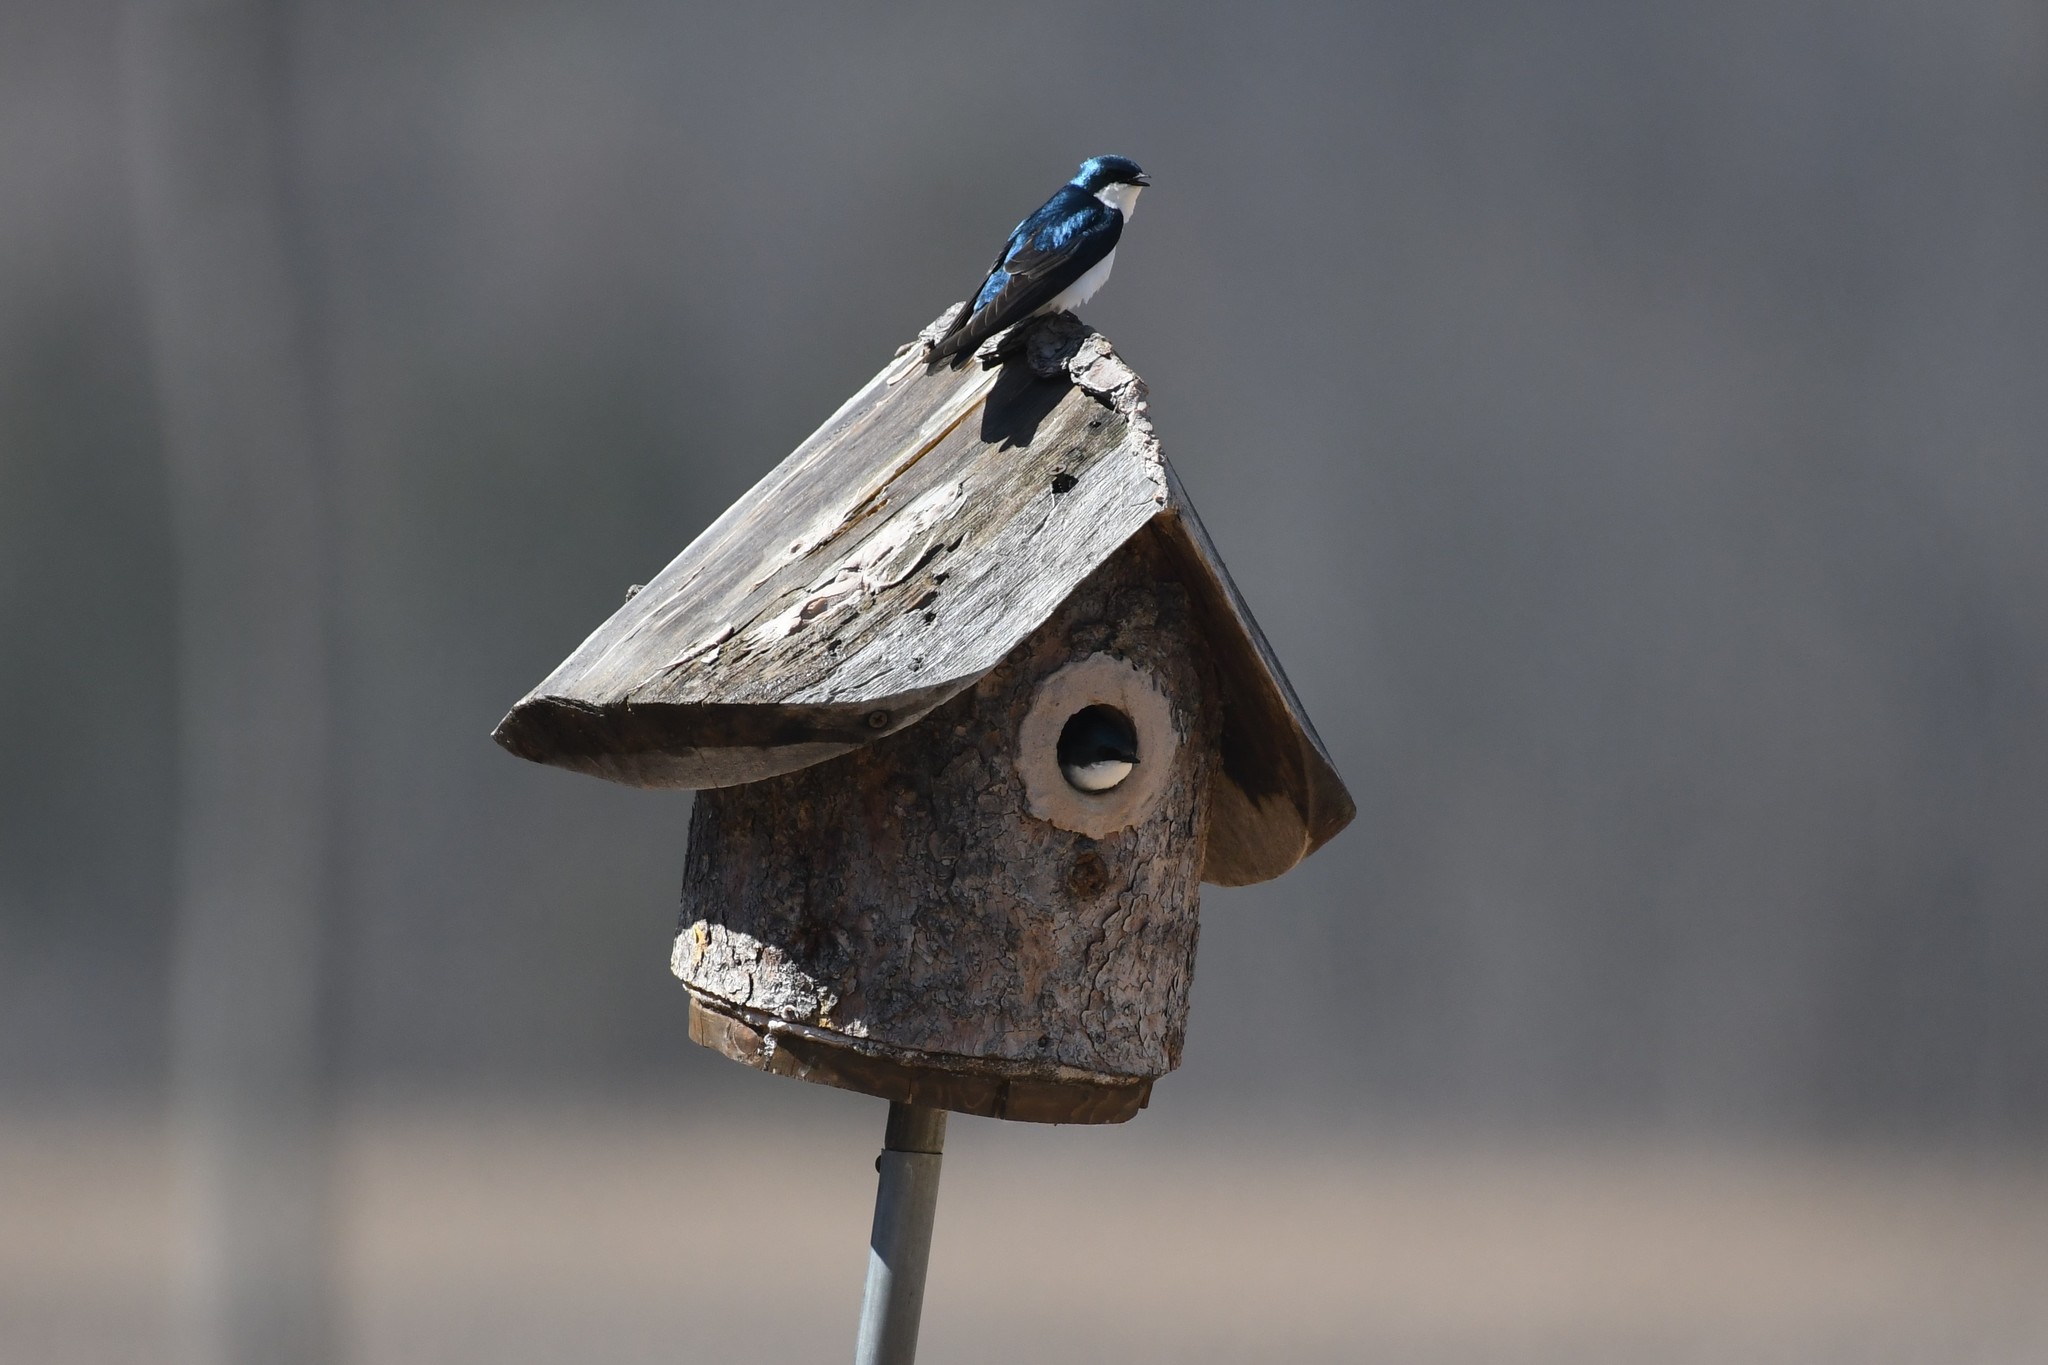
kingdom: Animalia
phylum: Chordata
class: Aves
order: Passeriformes
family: Hirundinidae
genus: Tachycineta
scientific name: Tachycineta bicolor
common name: Tree swallow
